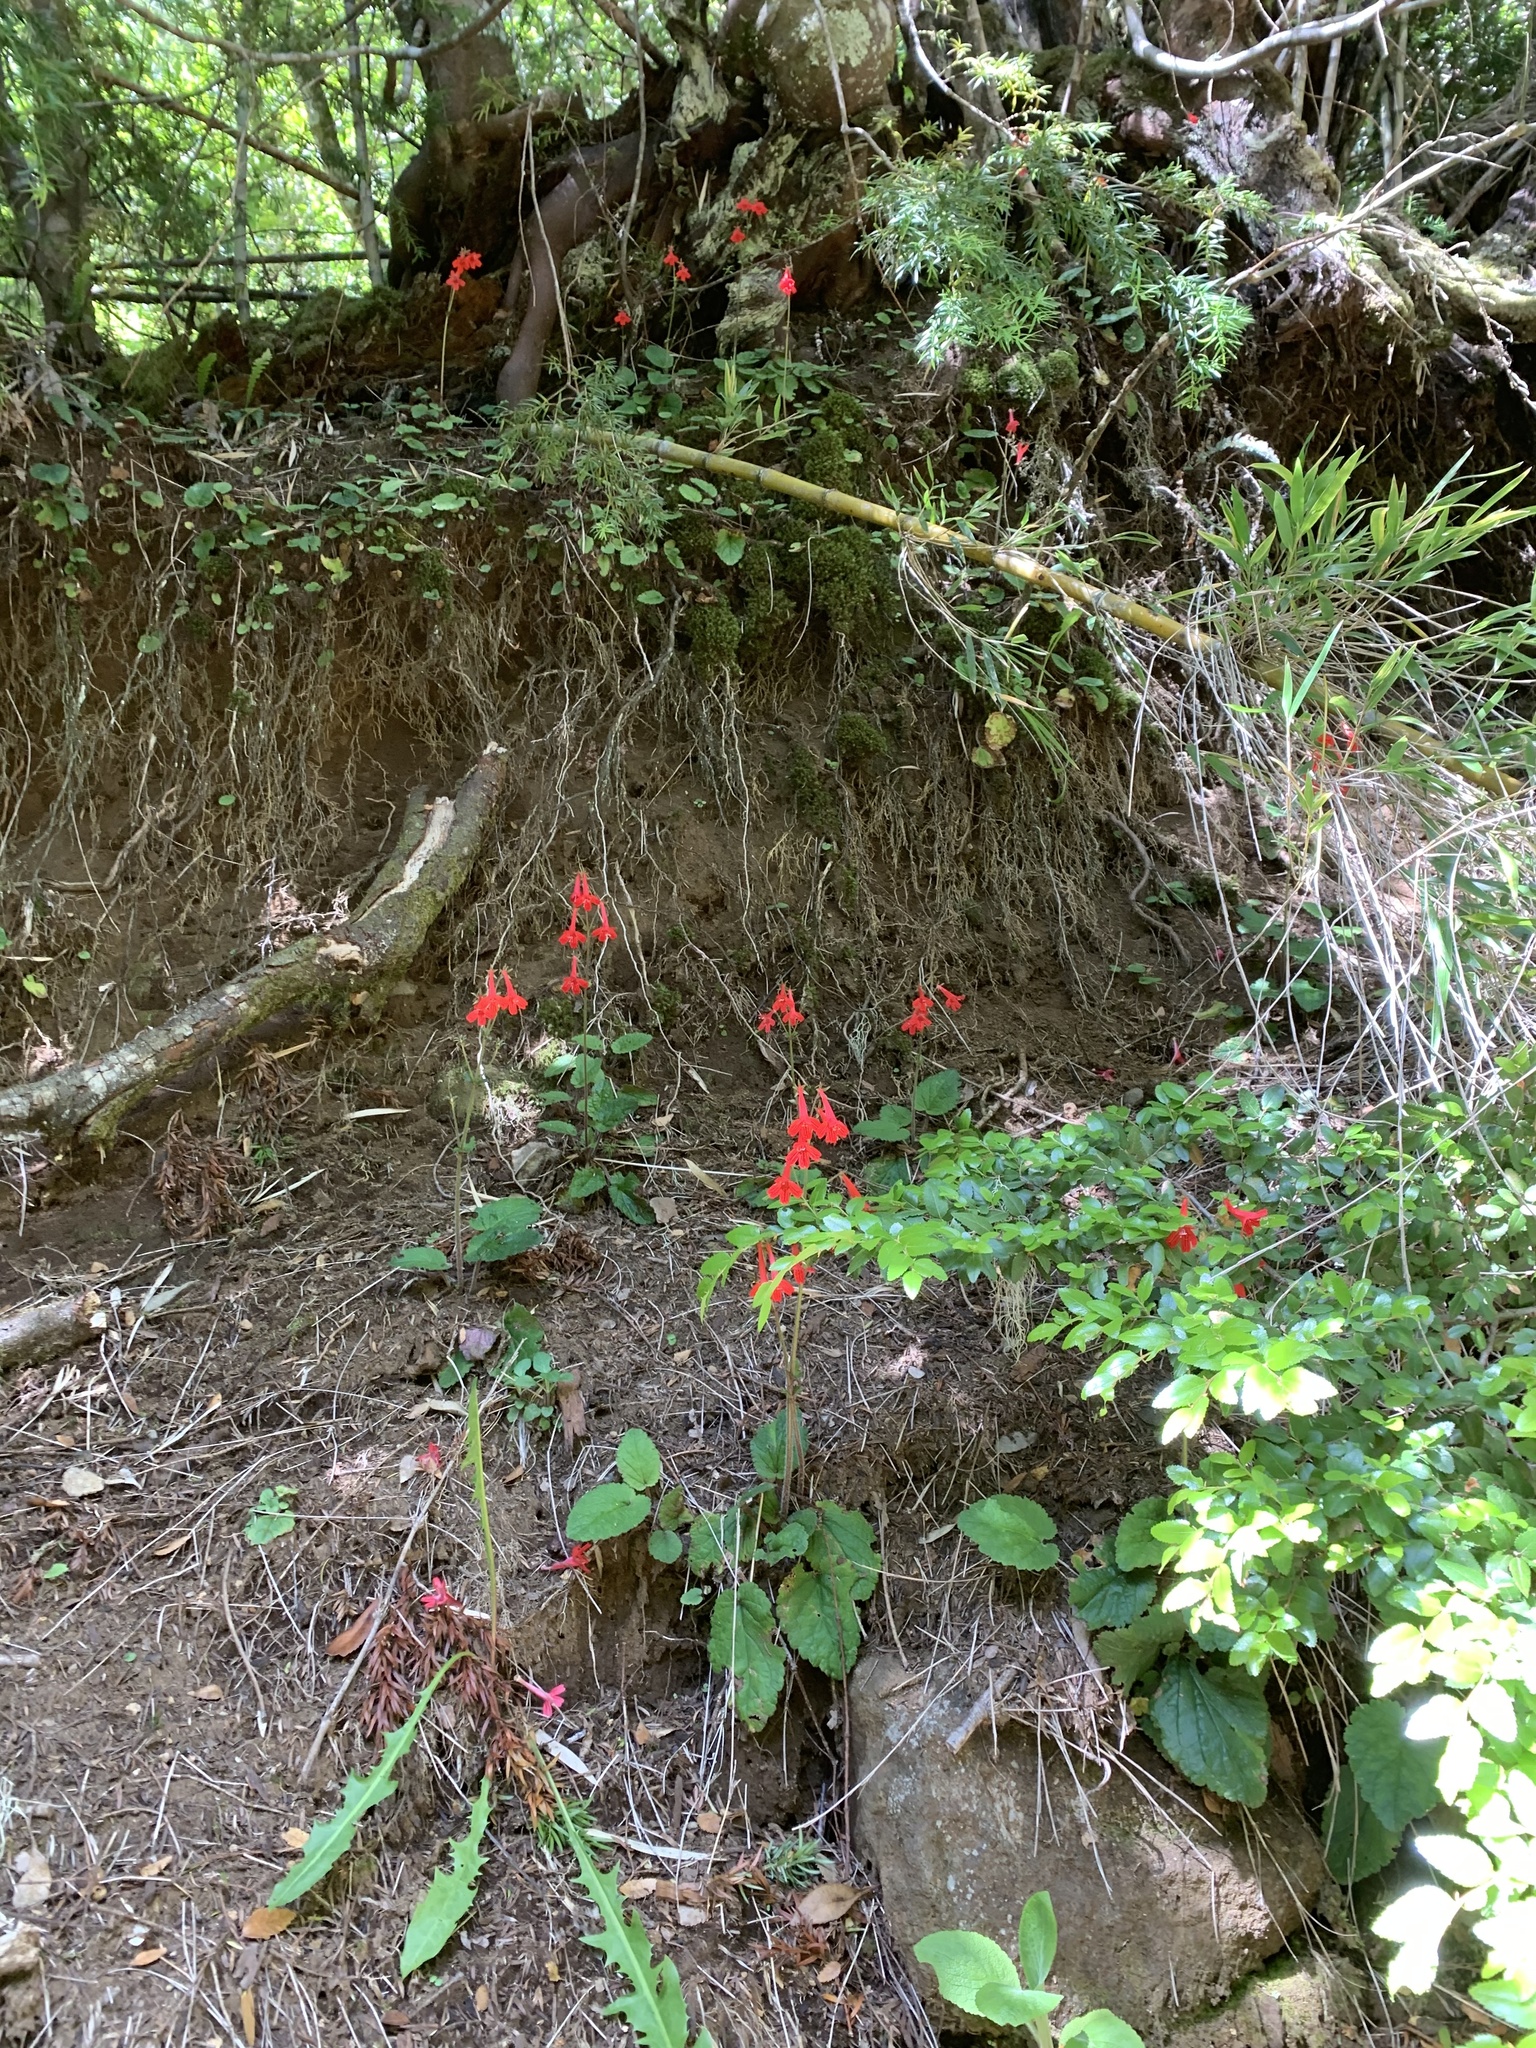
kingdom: Plantae
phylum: Tracheophyta
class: Magnoliopsida
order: Lamiales
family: Plantaginaceae
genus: Ourisia
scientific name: Ourisia coccinea
